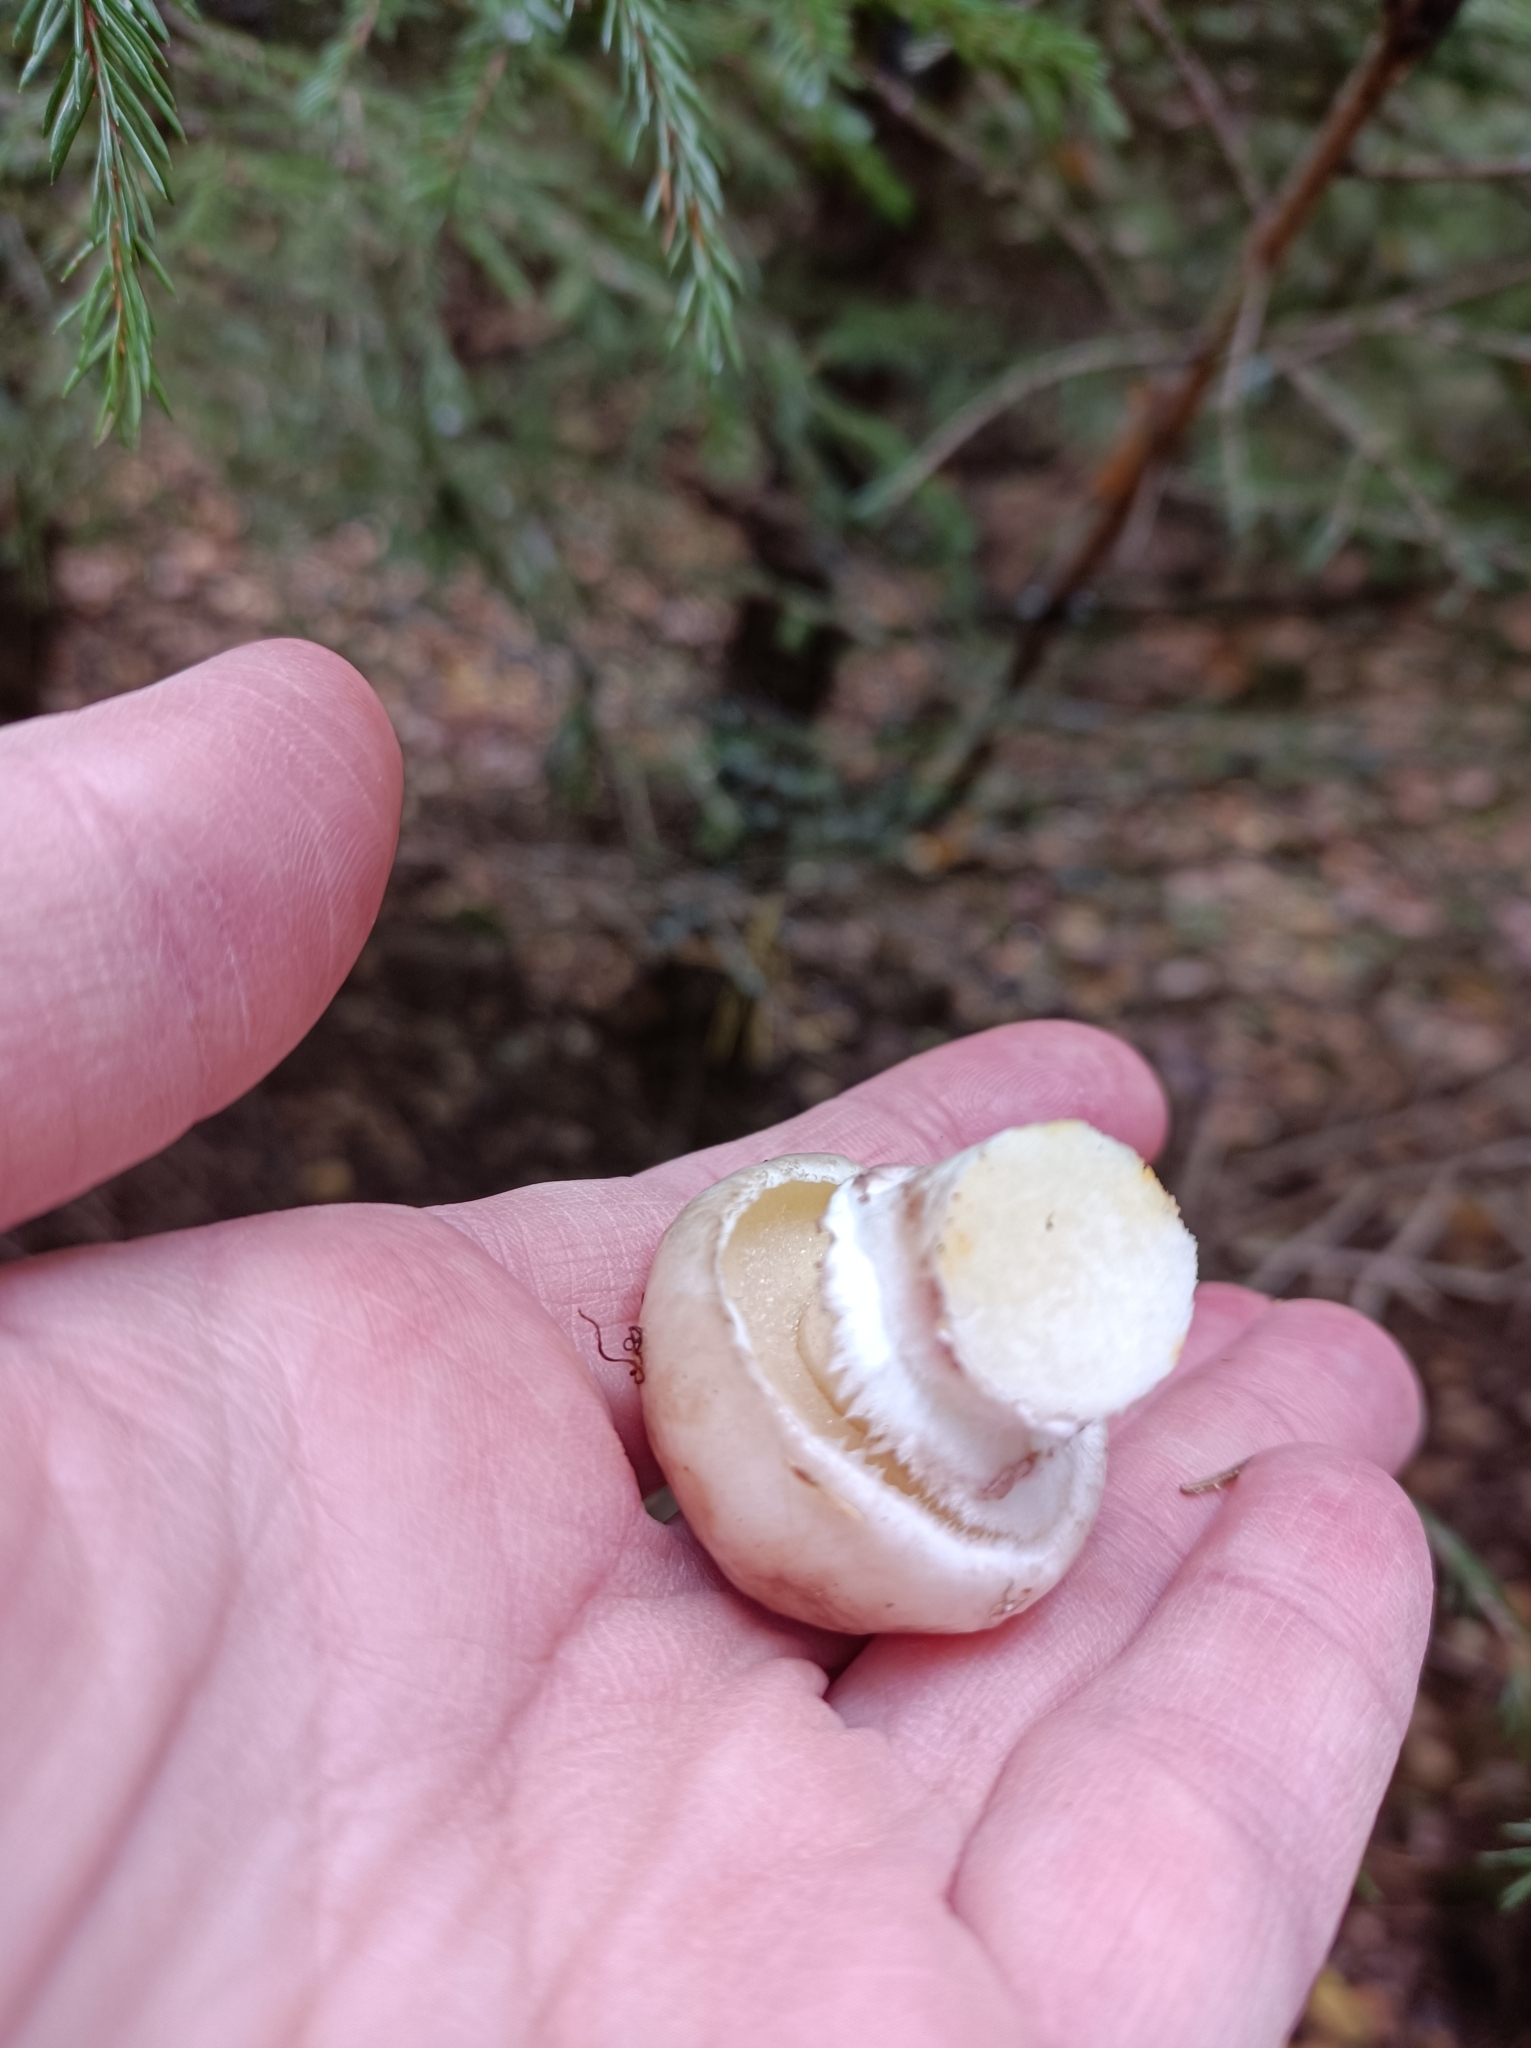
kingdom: Fungi
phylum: Basidiomycota
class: Agaricomycetes
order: Boletales
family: Suillaceae
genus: Suillus
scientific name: Suillus luteus
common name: Slippery jack
